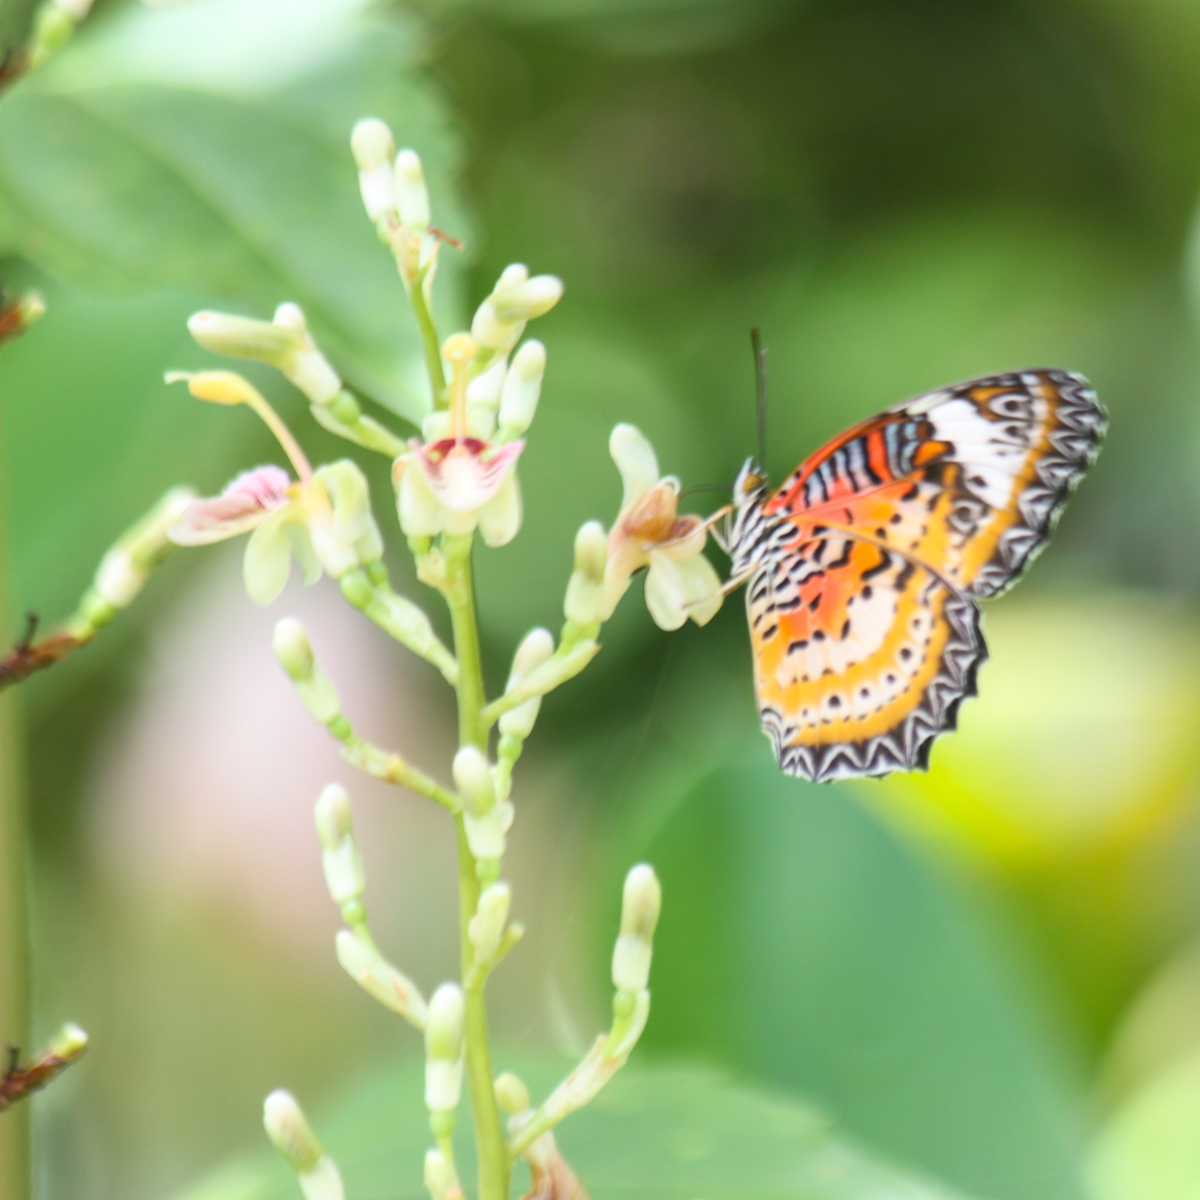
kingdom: Plantae
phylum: Tracheophyta
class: Liliopsida
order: Zingiberales
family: Zingiberaceae
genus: Alpinia
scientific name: Alpinia siamensis
